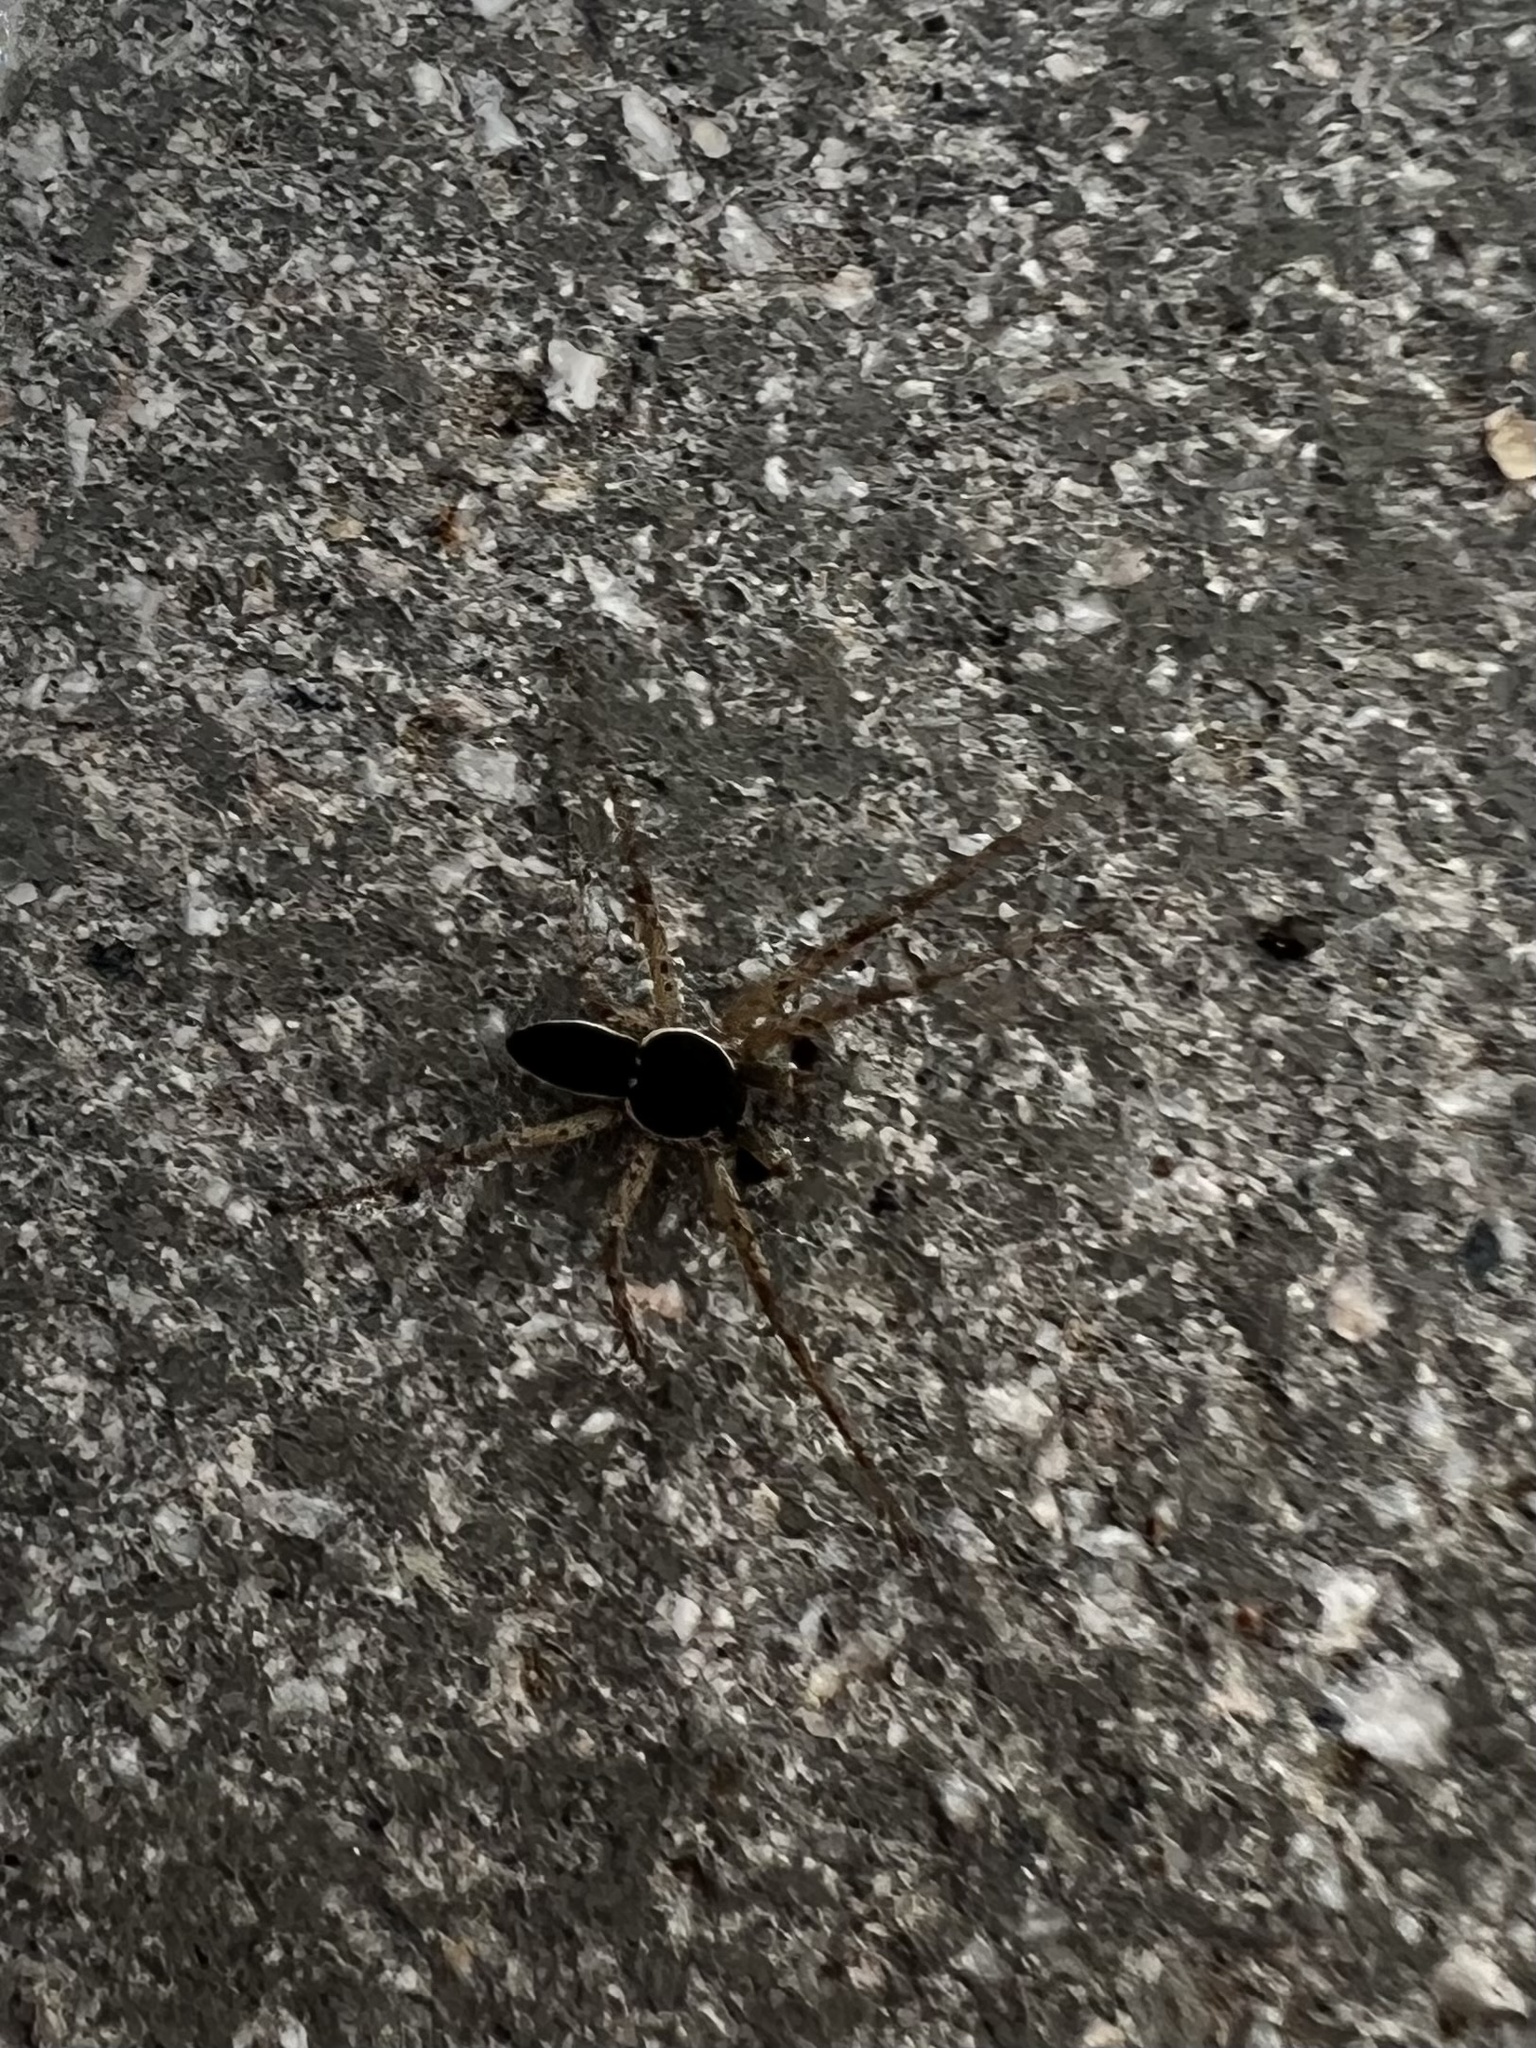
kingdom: Animalia
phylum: Arthropoda
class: Arachnida
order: Araneae
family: Philodromidae
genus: Philodromus
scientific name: Philodromus dispar
